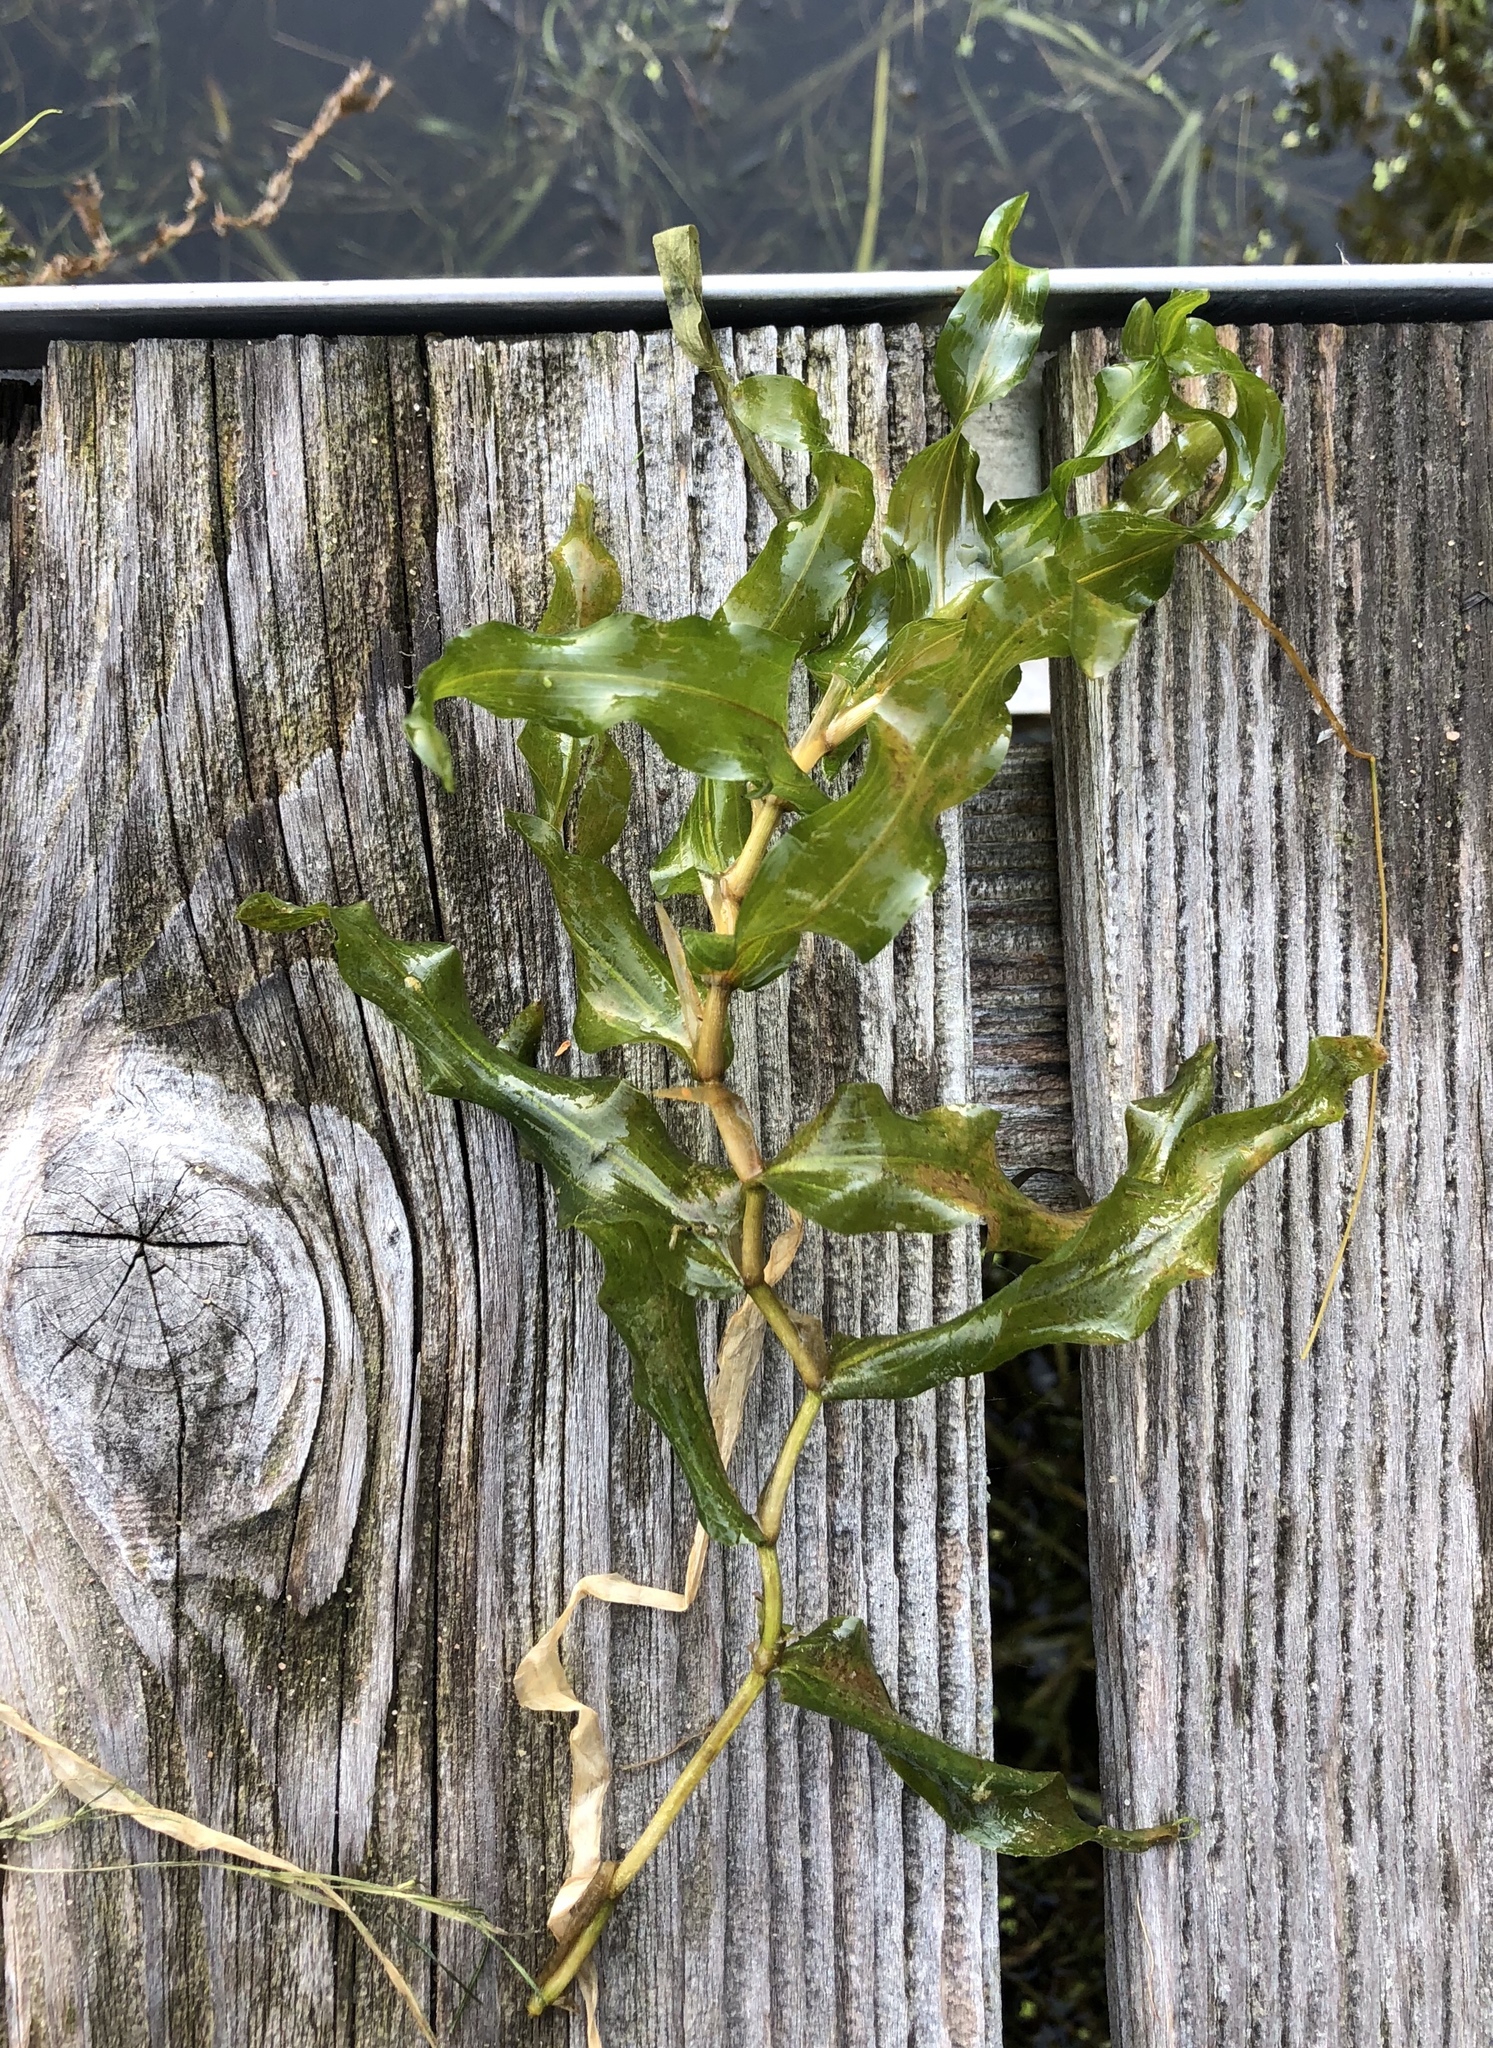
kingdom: Plantae
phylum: Tracheophyta
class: Liliopsida
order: Alismatales
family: Potamogetonaceae
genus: Potamogeton
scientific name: Potamogeton praelongus
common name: Long-stalked pondweed
